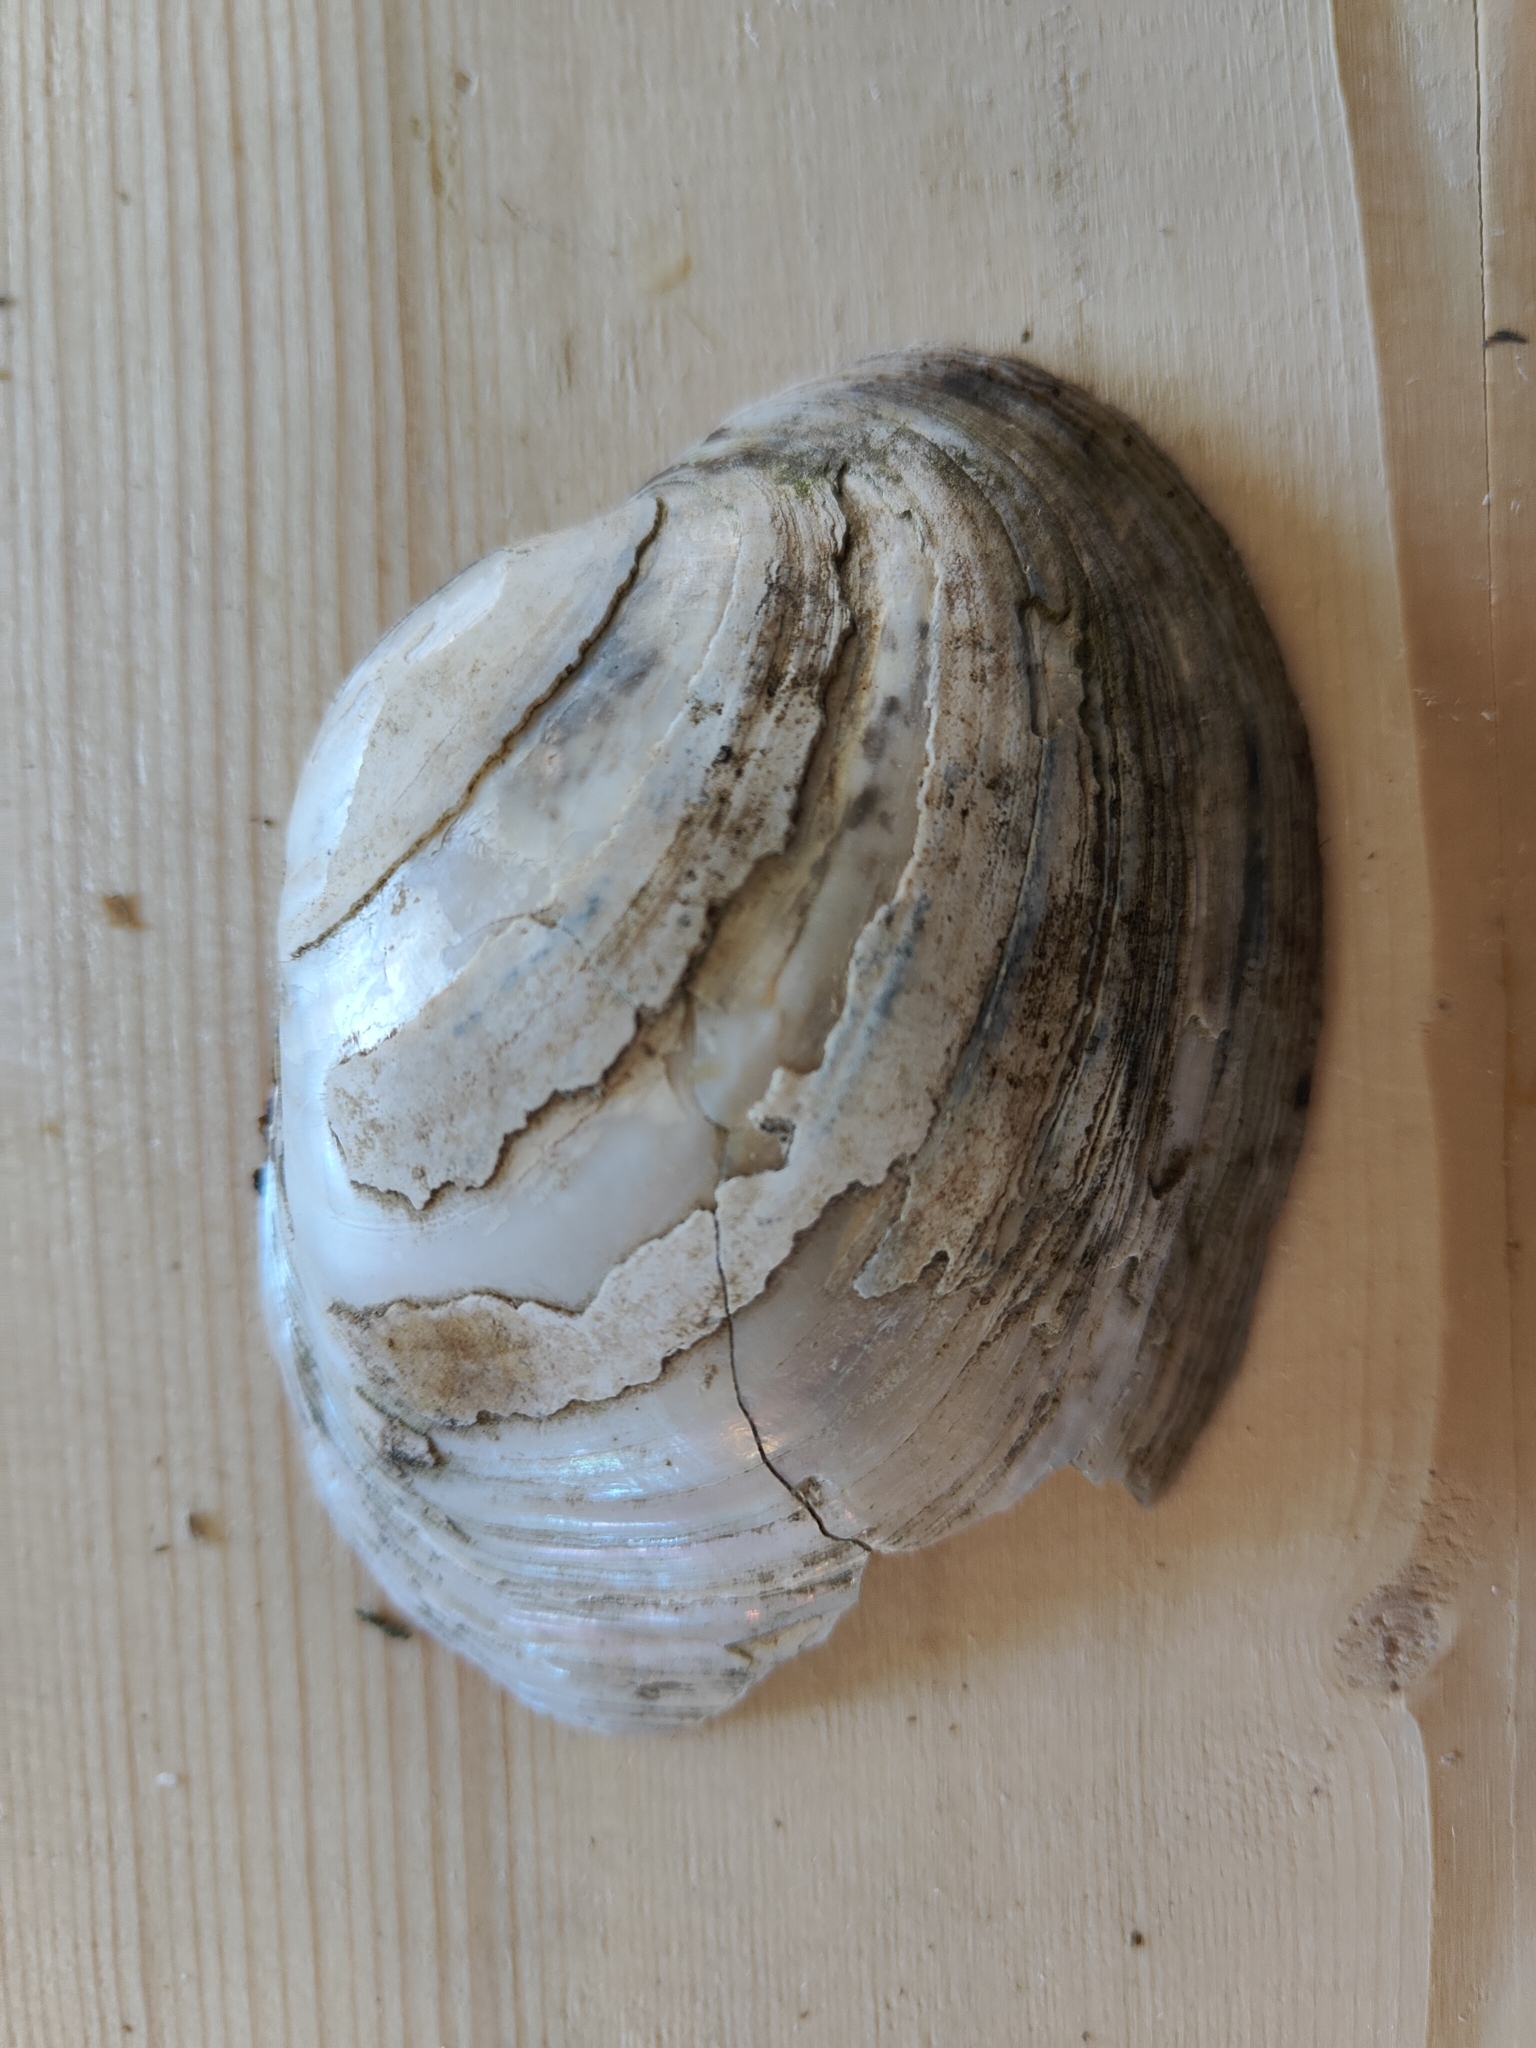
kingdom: Animalia
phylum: Mollusca
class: Bivalvia
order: Unionida
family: Unionidae
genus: Lampsilis
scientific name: Lampsilis cardium
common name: Plain pocketbook
